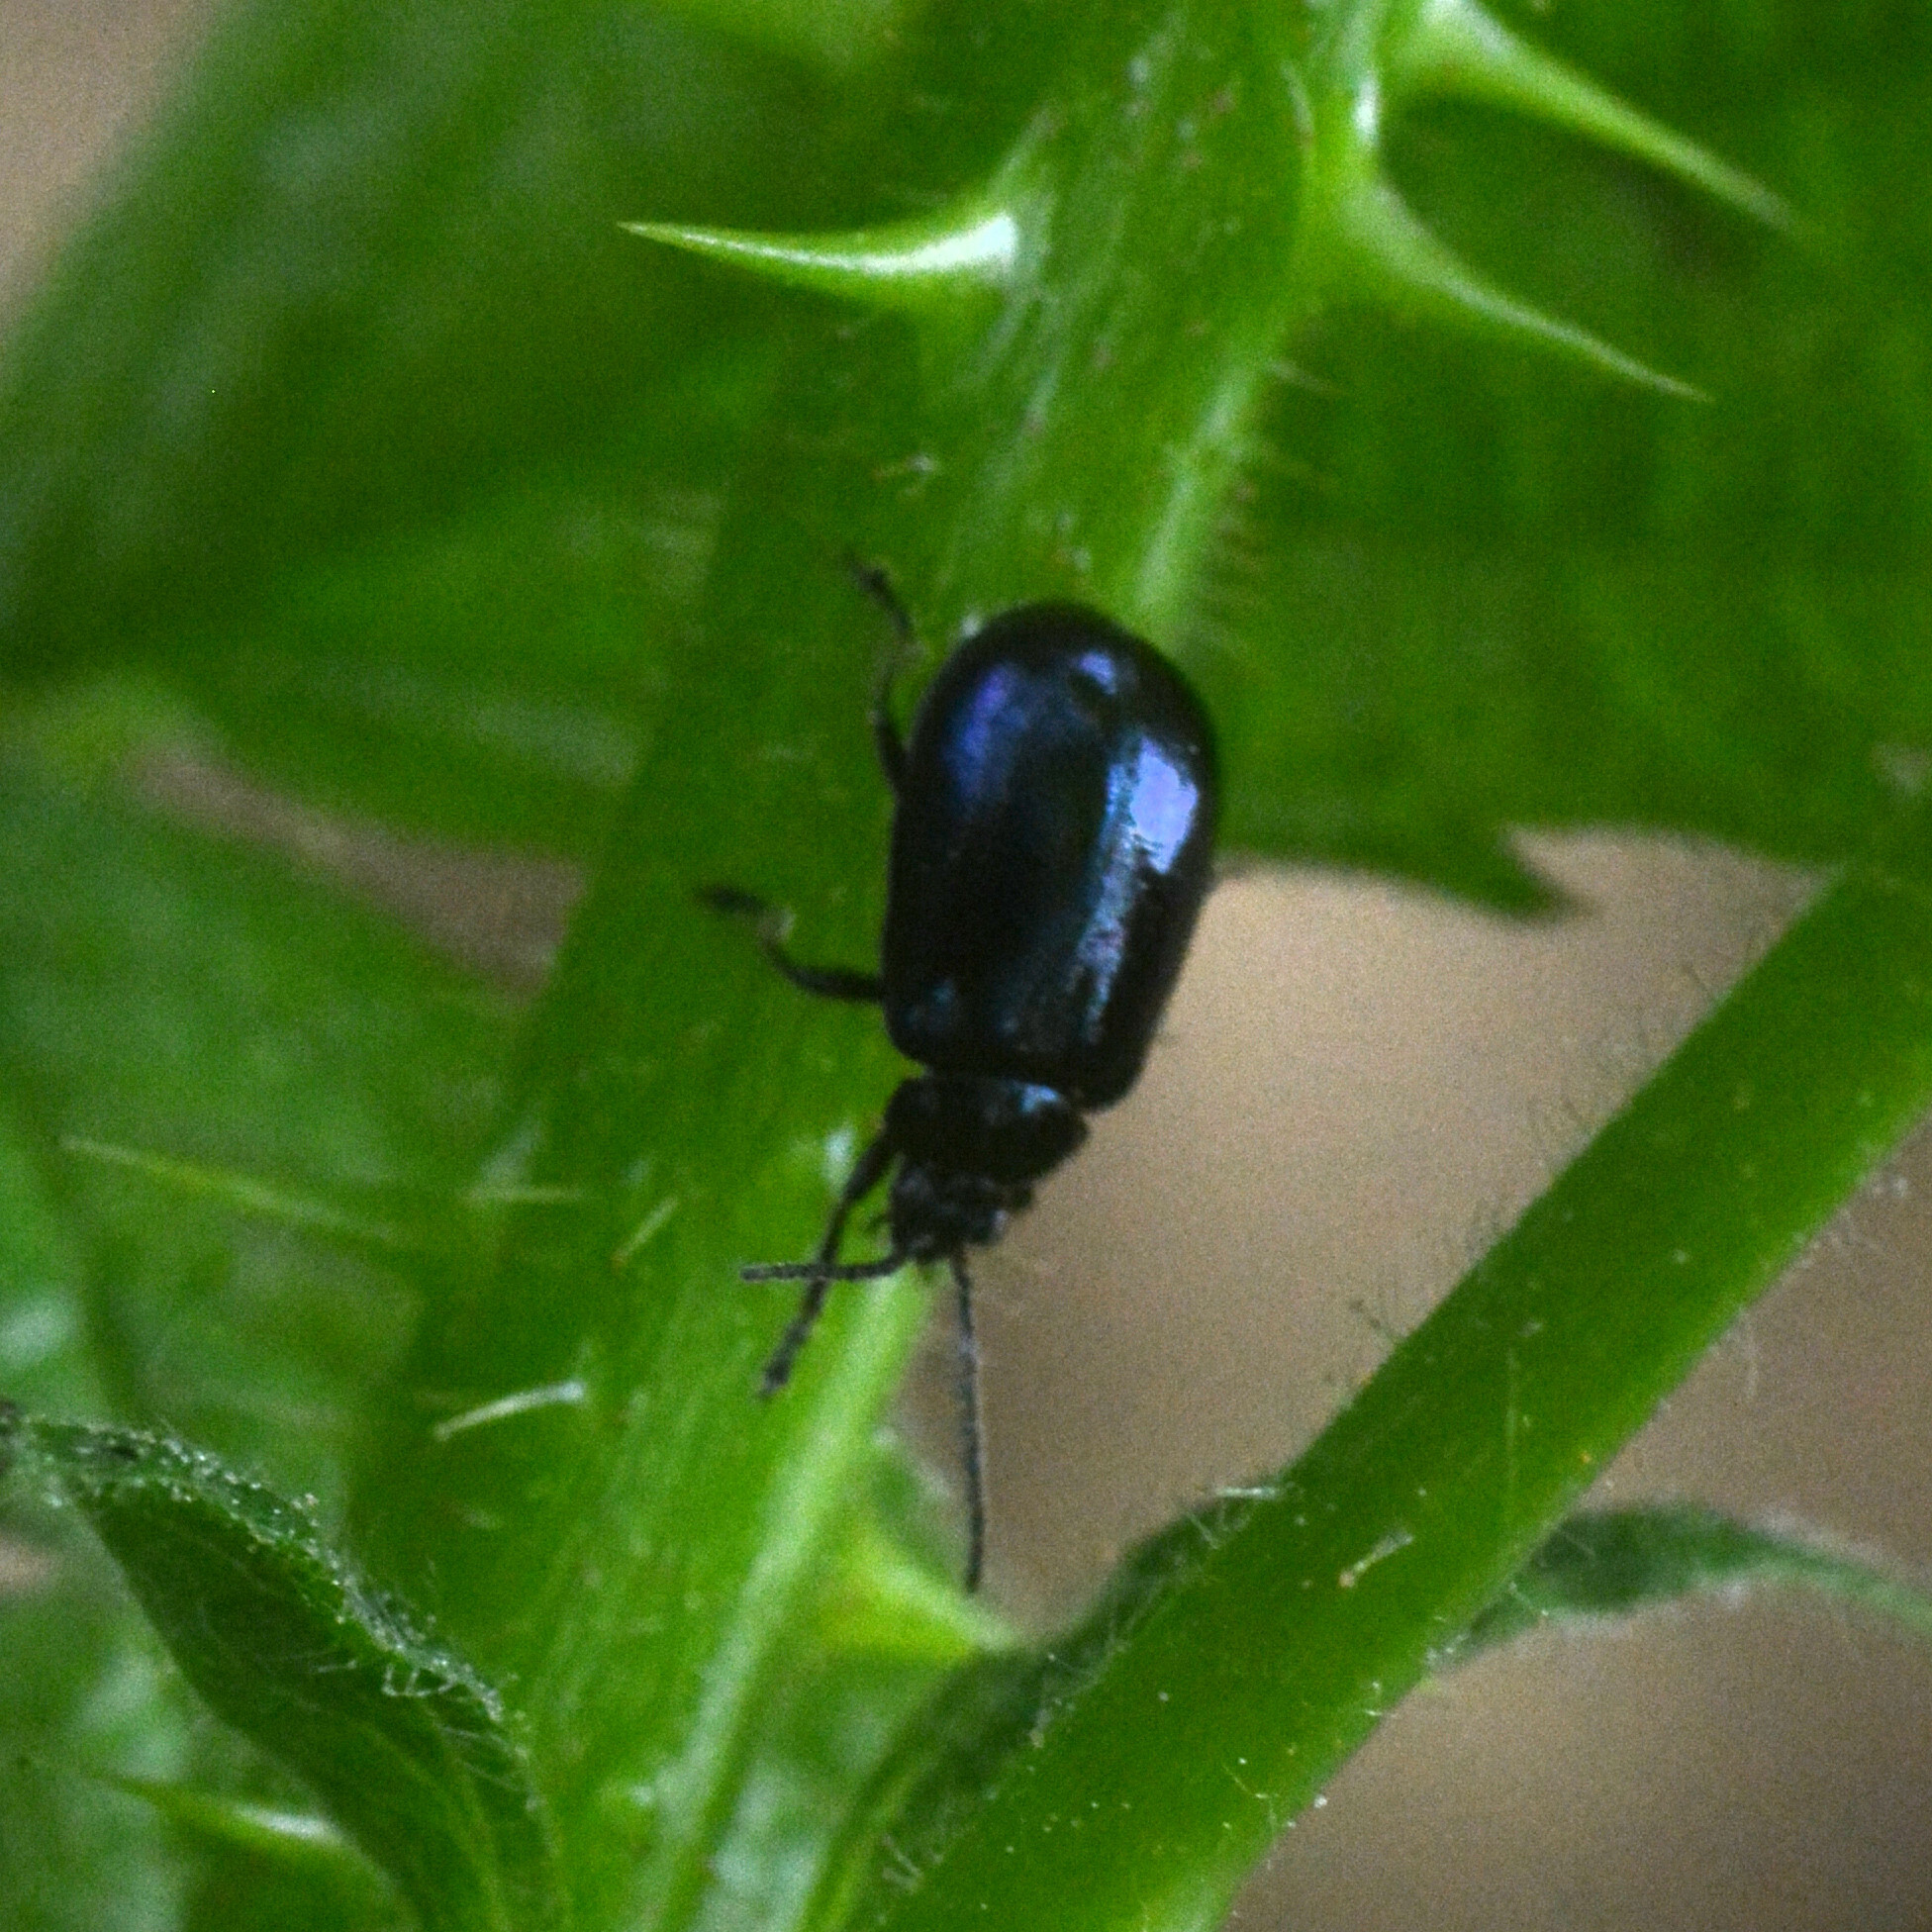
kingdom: Animalia
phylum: Arthropoda
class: Insecta
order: Coleoptera
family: Chrysomelidae
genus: Agelastica
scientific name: Agelastica alni
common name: Alder leaf beetle
